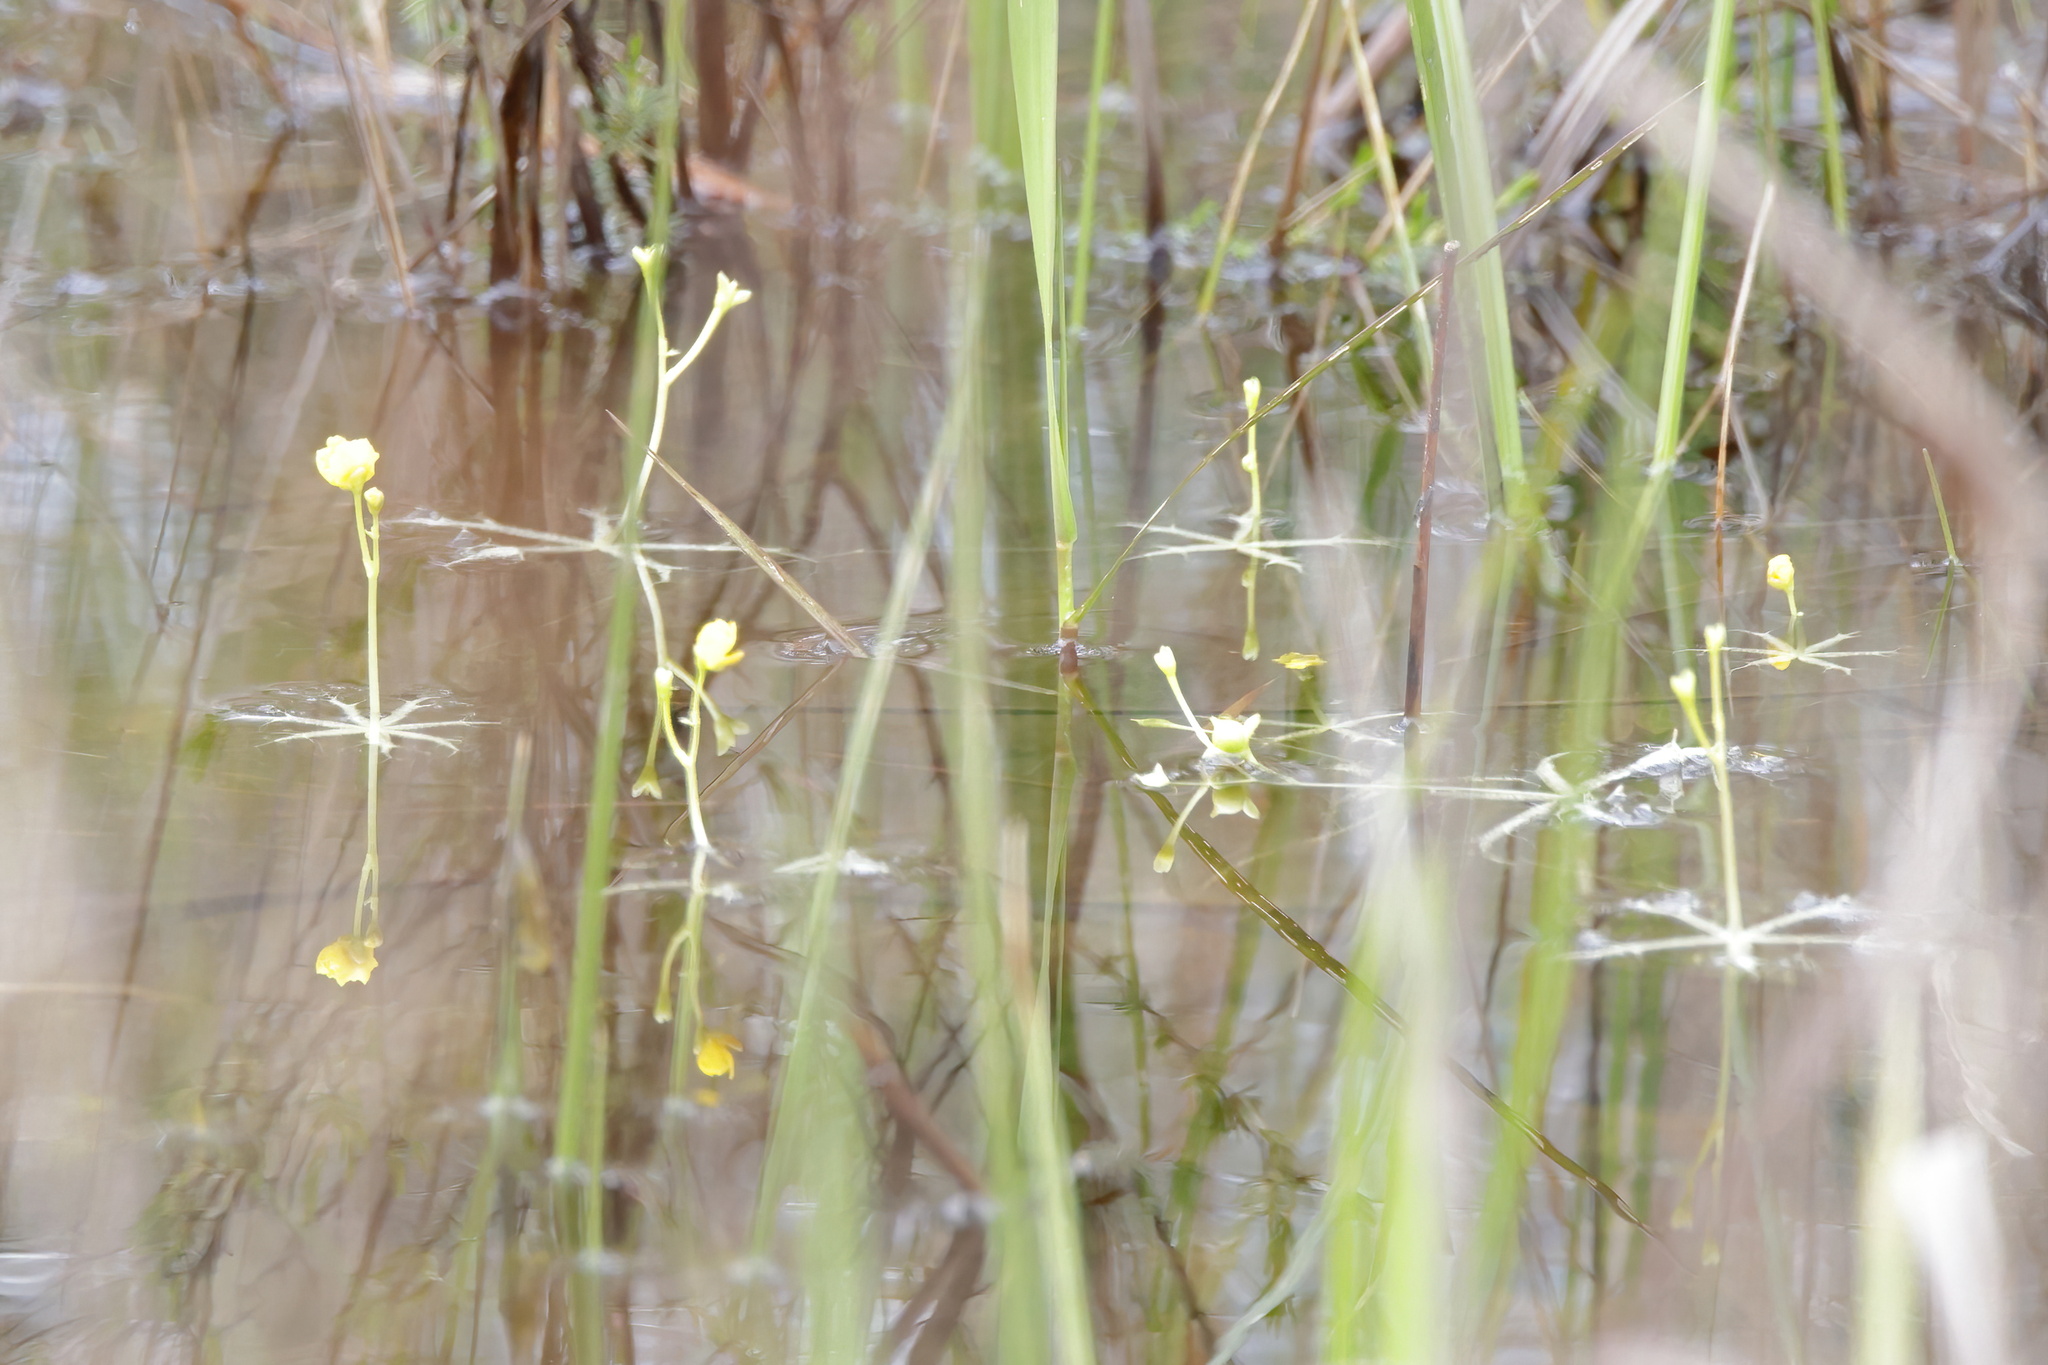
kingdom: Plantae
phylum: Tracheophyta
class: Magnoliopsida
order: Lamiales
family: Lentibulariaceae
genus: Utricularia
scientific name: Utricularia radiata
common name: Floating bladderwort
